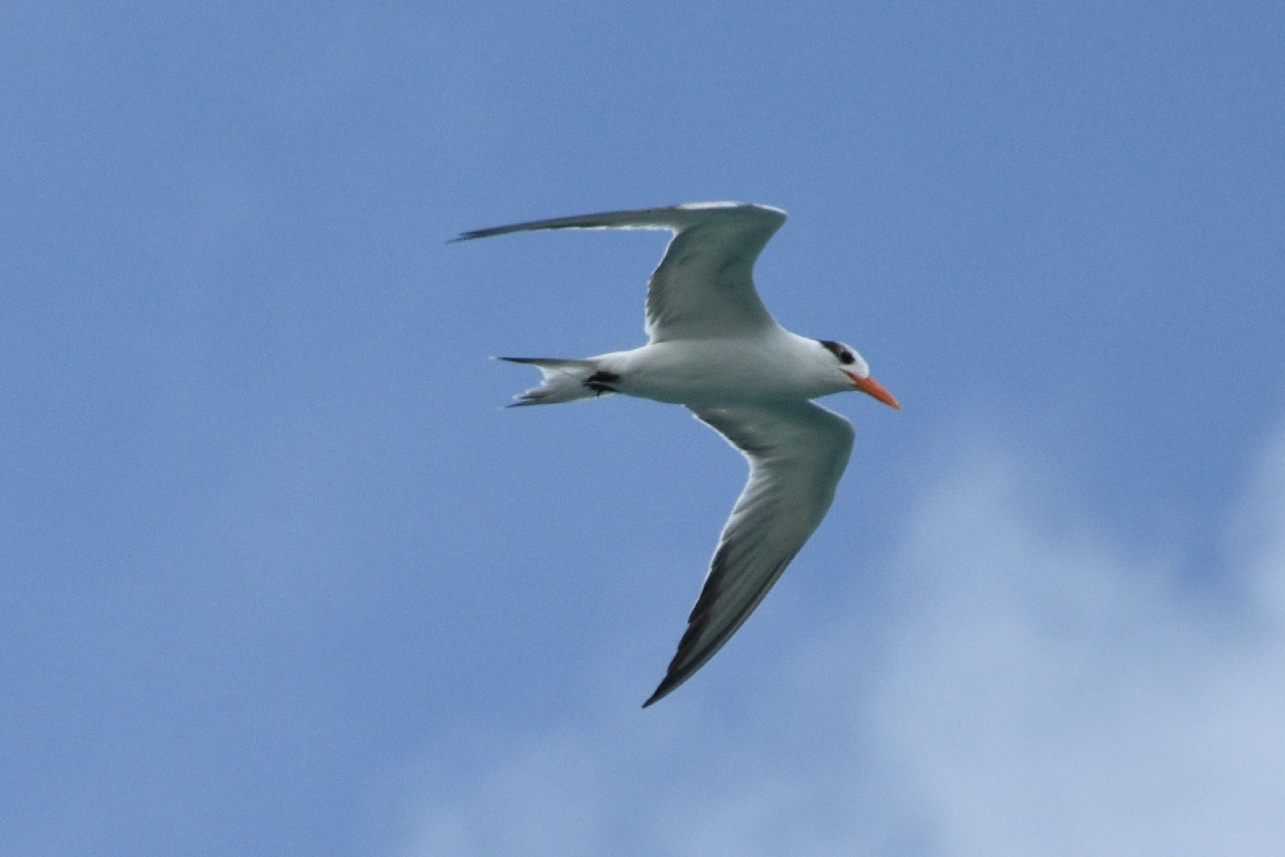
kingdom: Animalia
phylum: Chordata
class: Aves
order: Charadriiformes
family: Laridae
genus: Thalasseus
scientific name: Thalasseus maximus
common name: Royal tern
